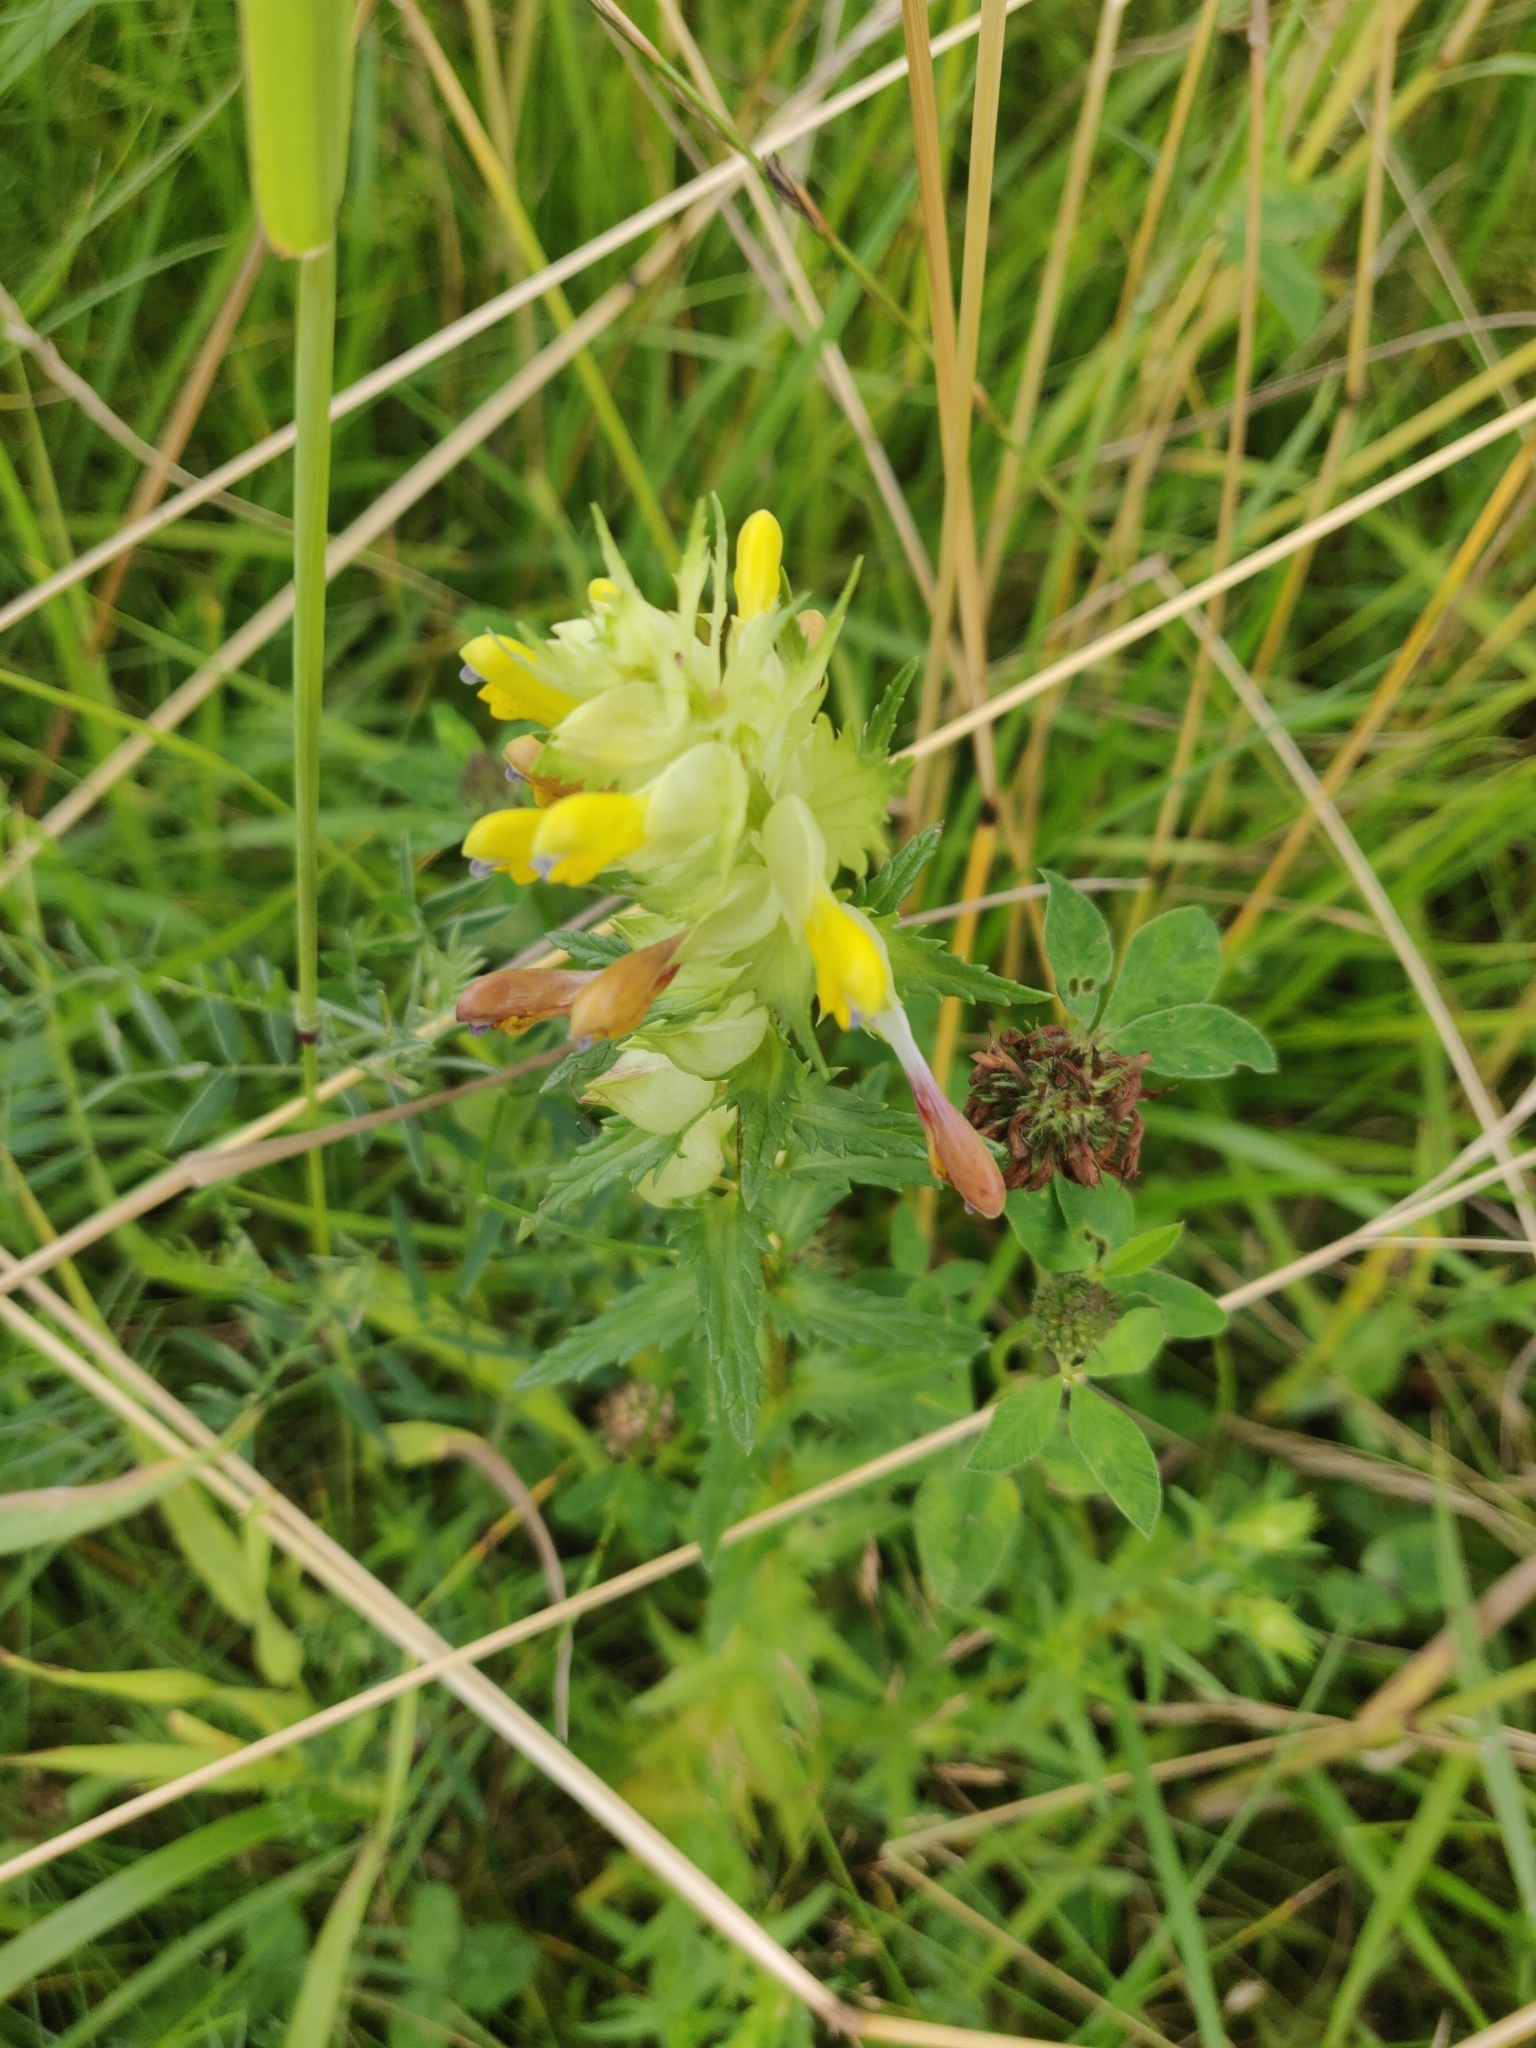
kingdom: Plantae
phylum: Tracheophyta
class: Magnoliopsida
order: Lamiales
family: Orobanchaceae
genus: Rhinanthus
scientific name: Rhinanthus serotinus
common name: Late-flowering yellow rattle
